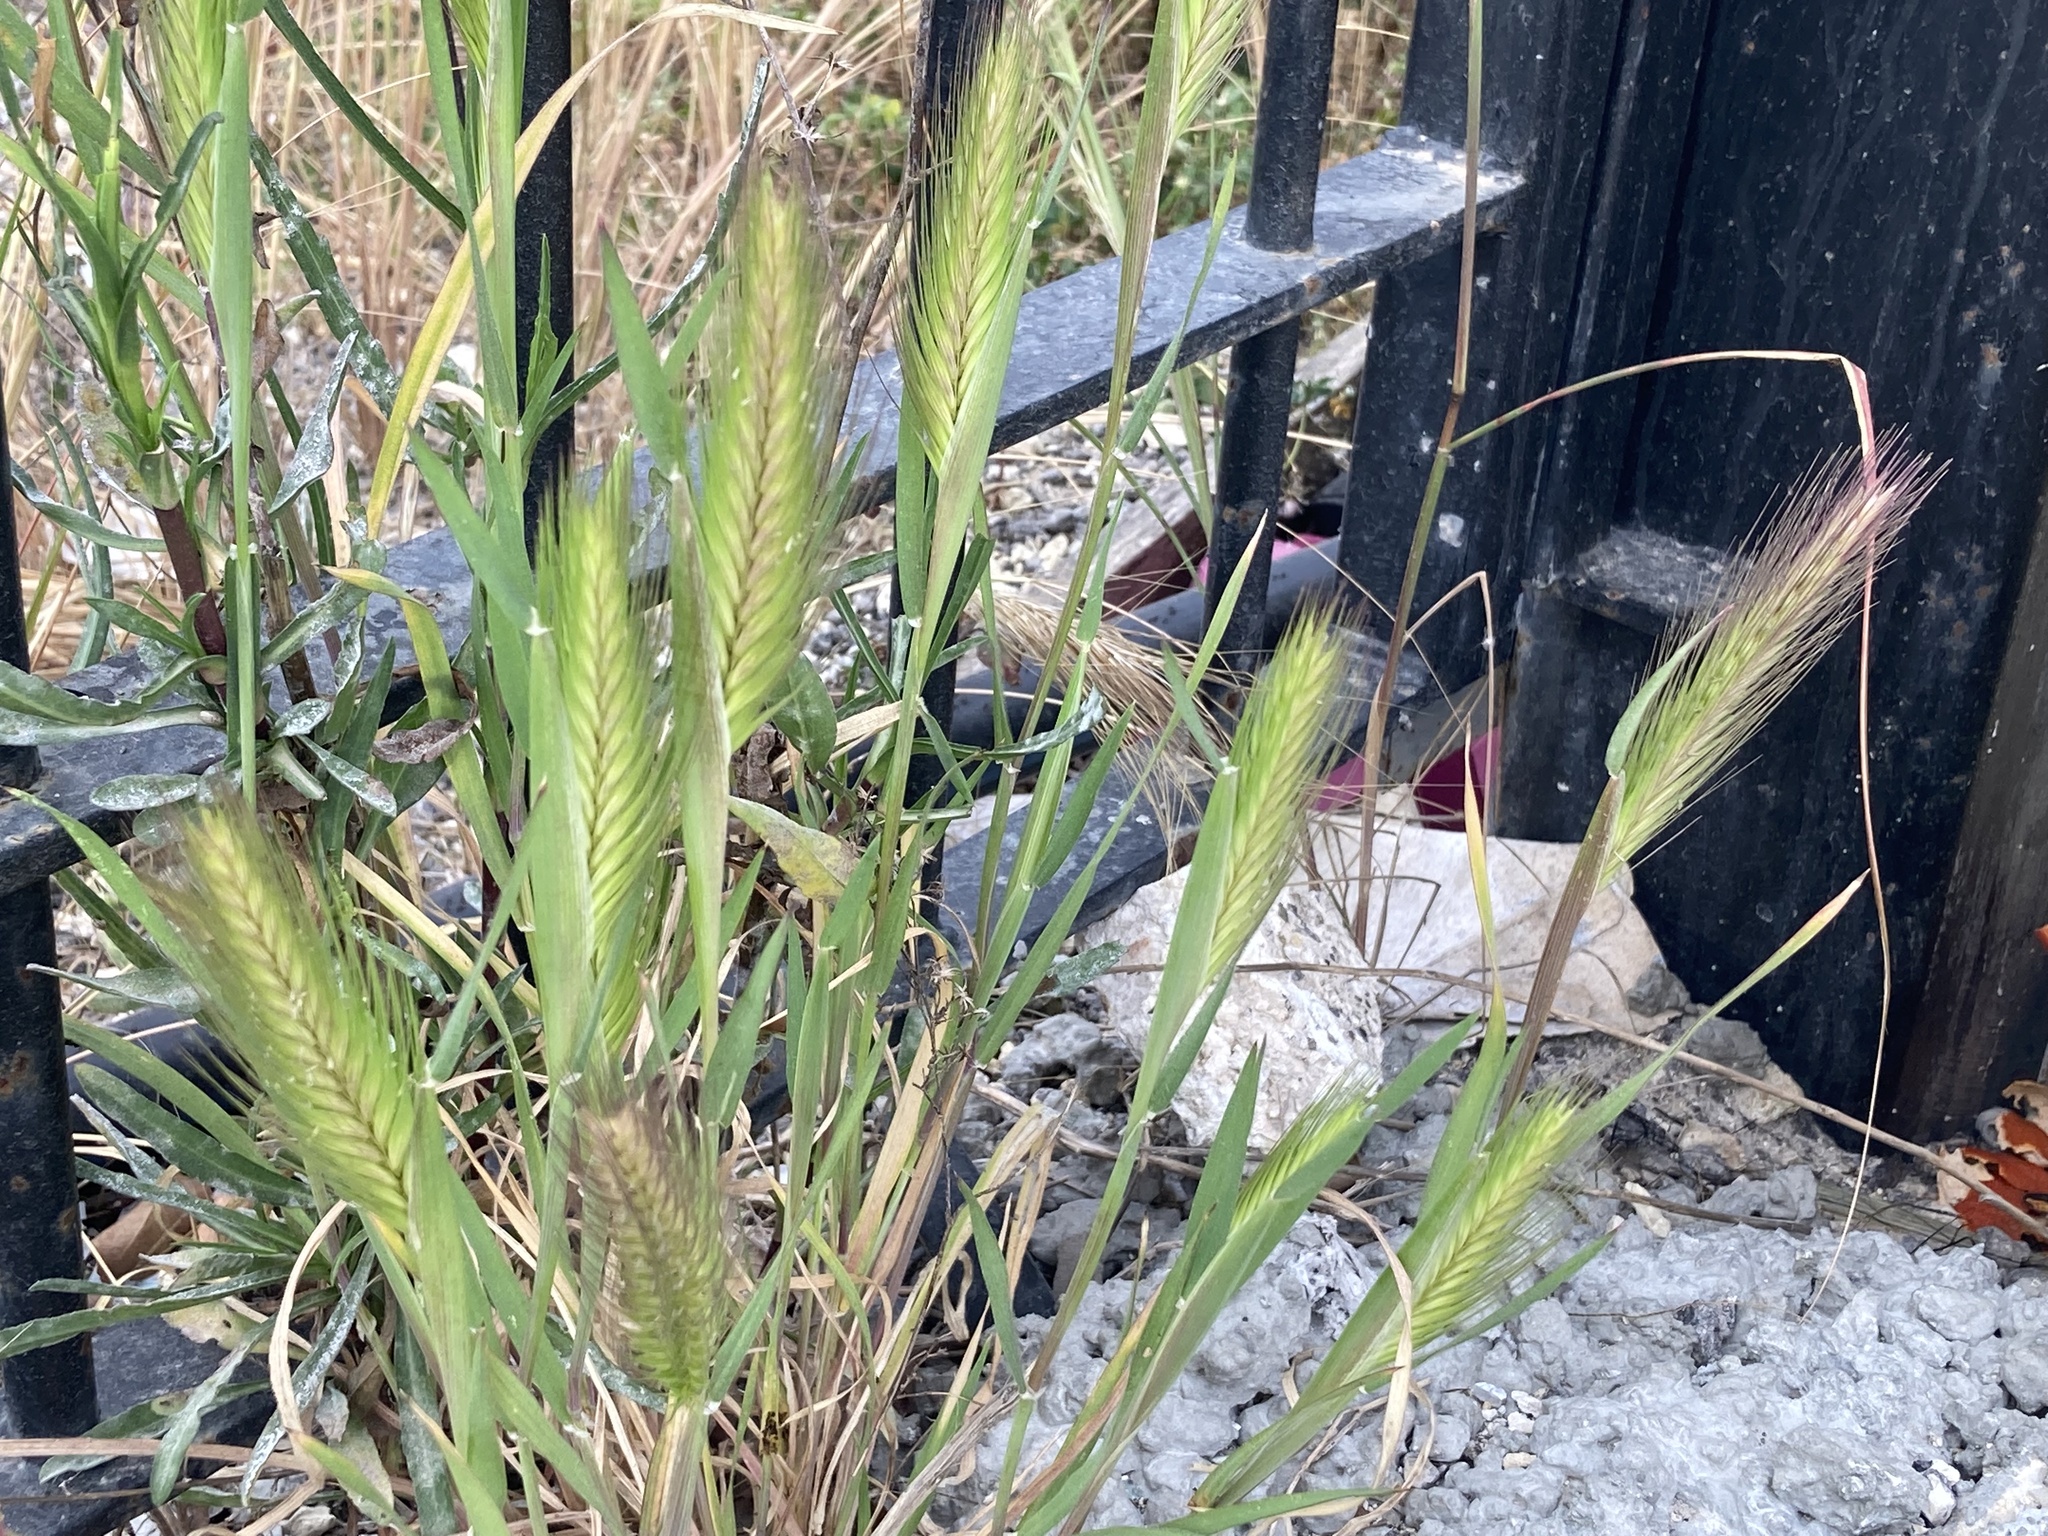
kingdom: Plantae
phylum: Tracheophyta
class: Liliopsida
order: Poales
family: Poaceae
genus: Hordeum
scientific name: Hordeum murinum
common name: Wall barley
